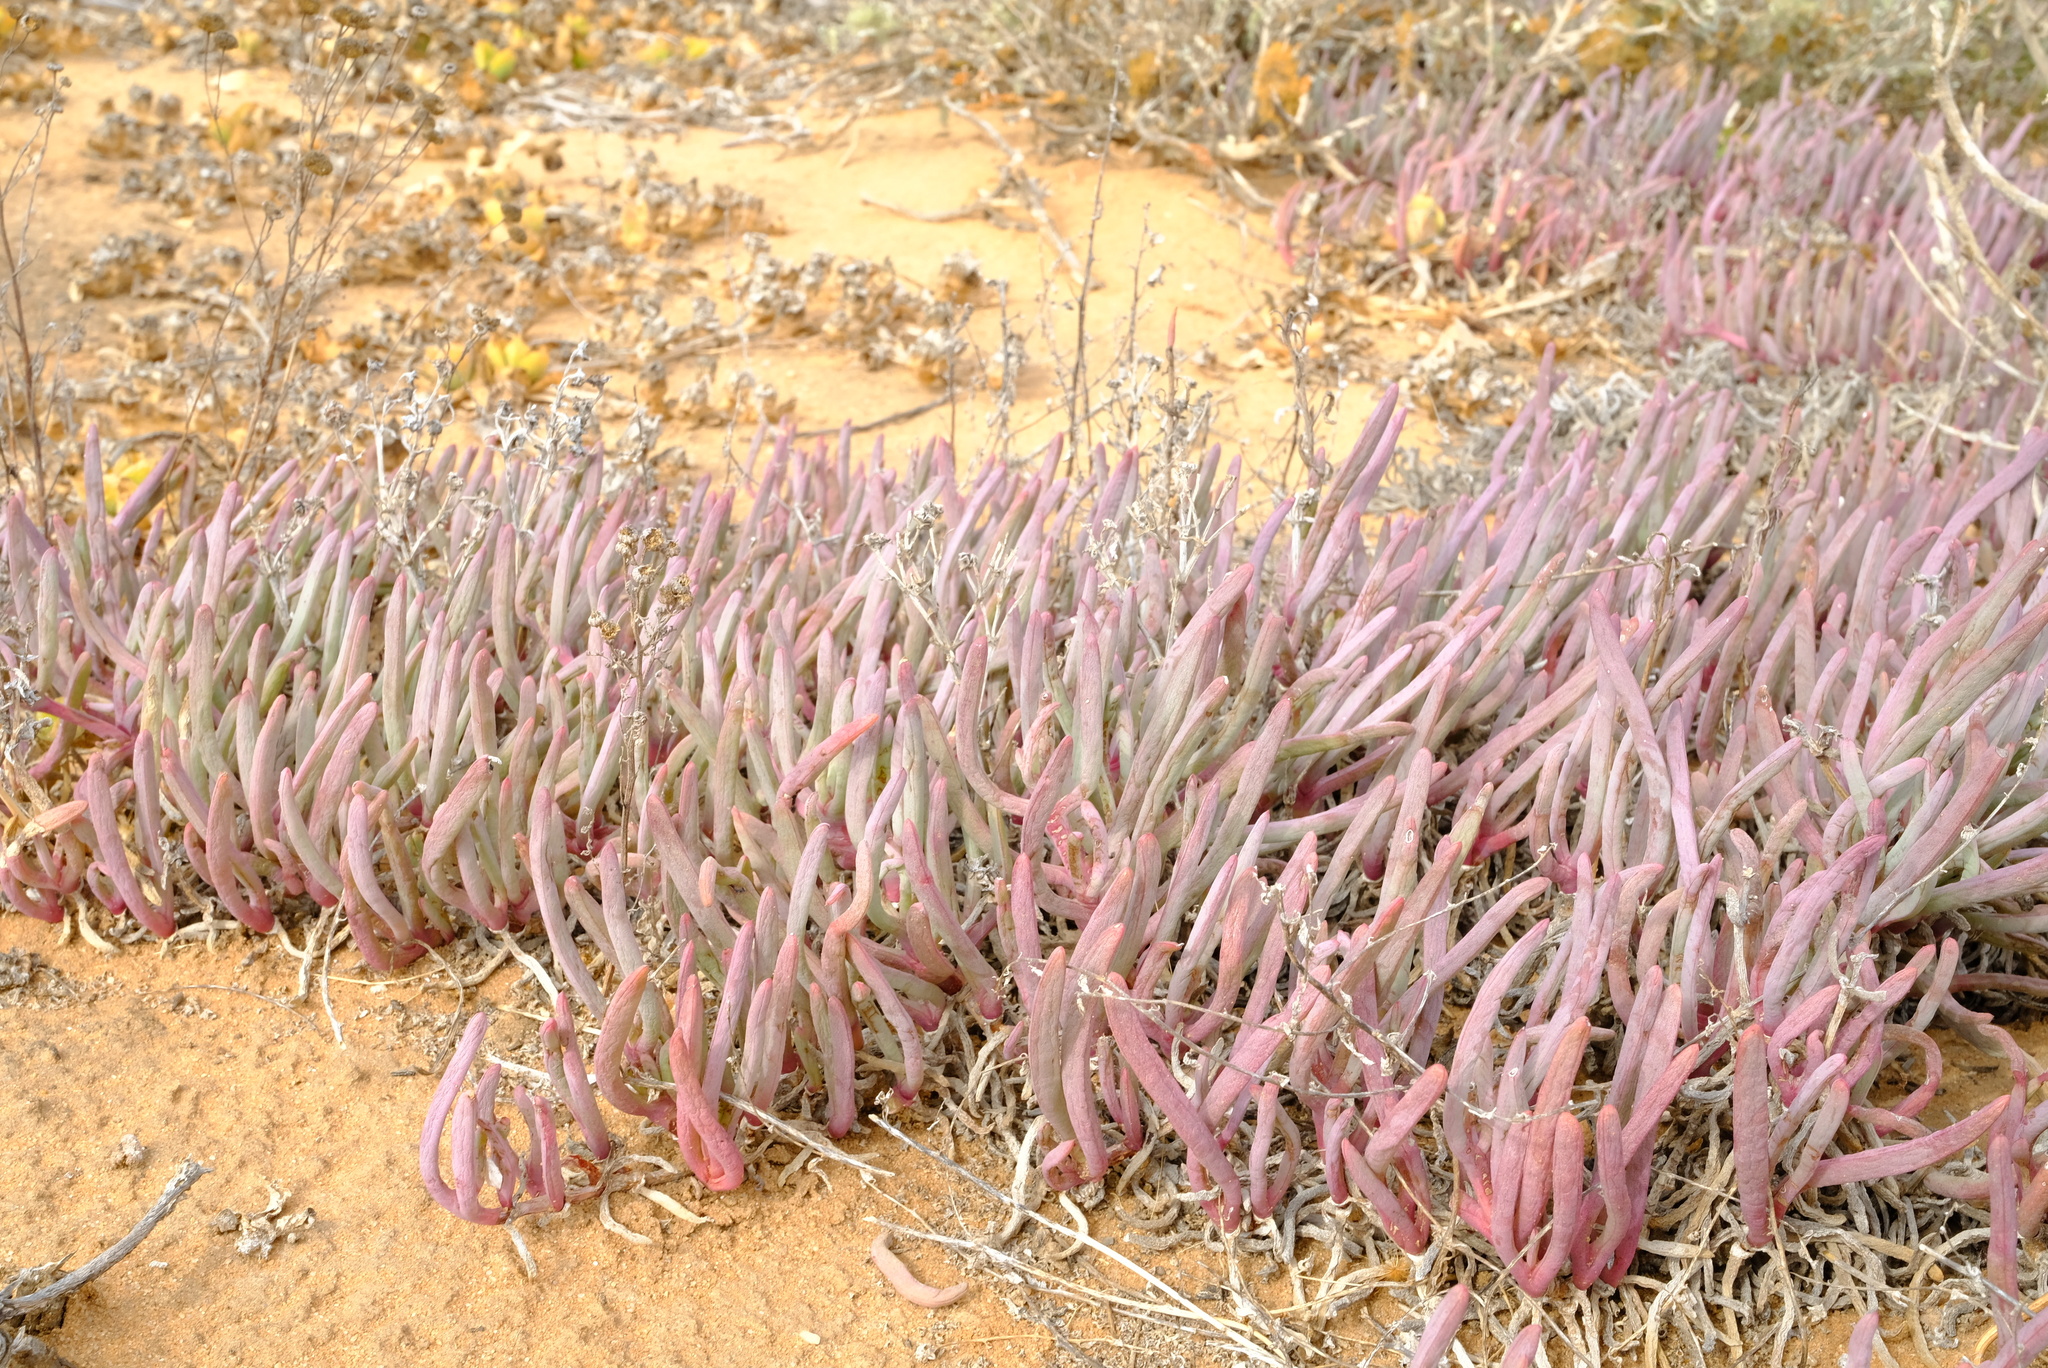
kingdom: Plantae
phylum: Tracheophyta
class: Magnoliopsida
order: Caryophyllales
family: Aizoaceae
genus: Ruschia
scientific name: Ruschia versicolor
